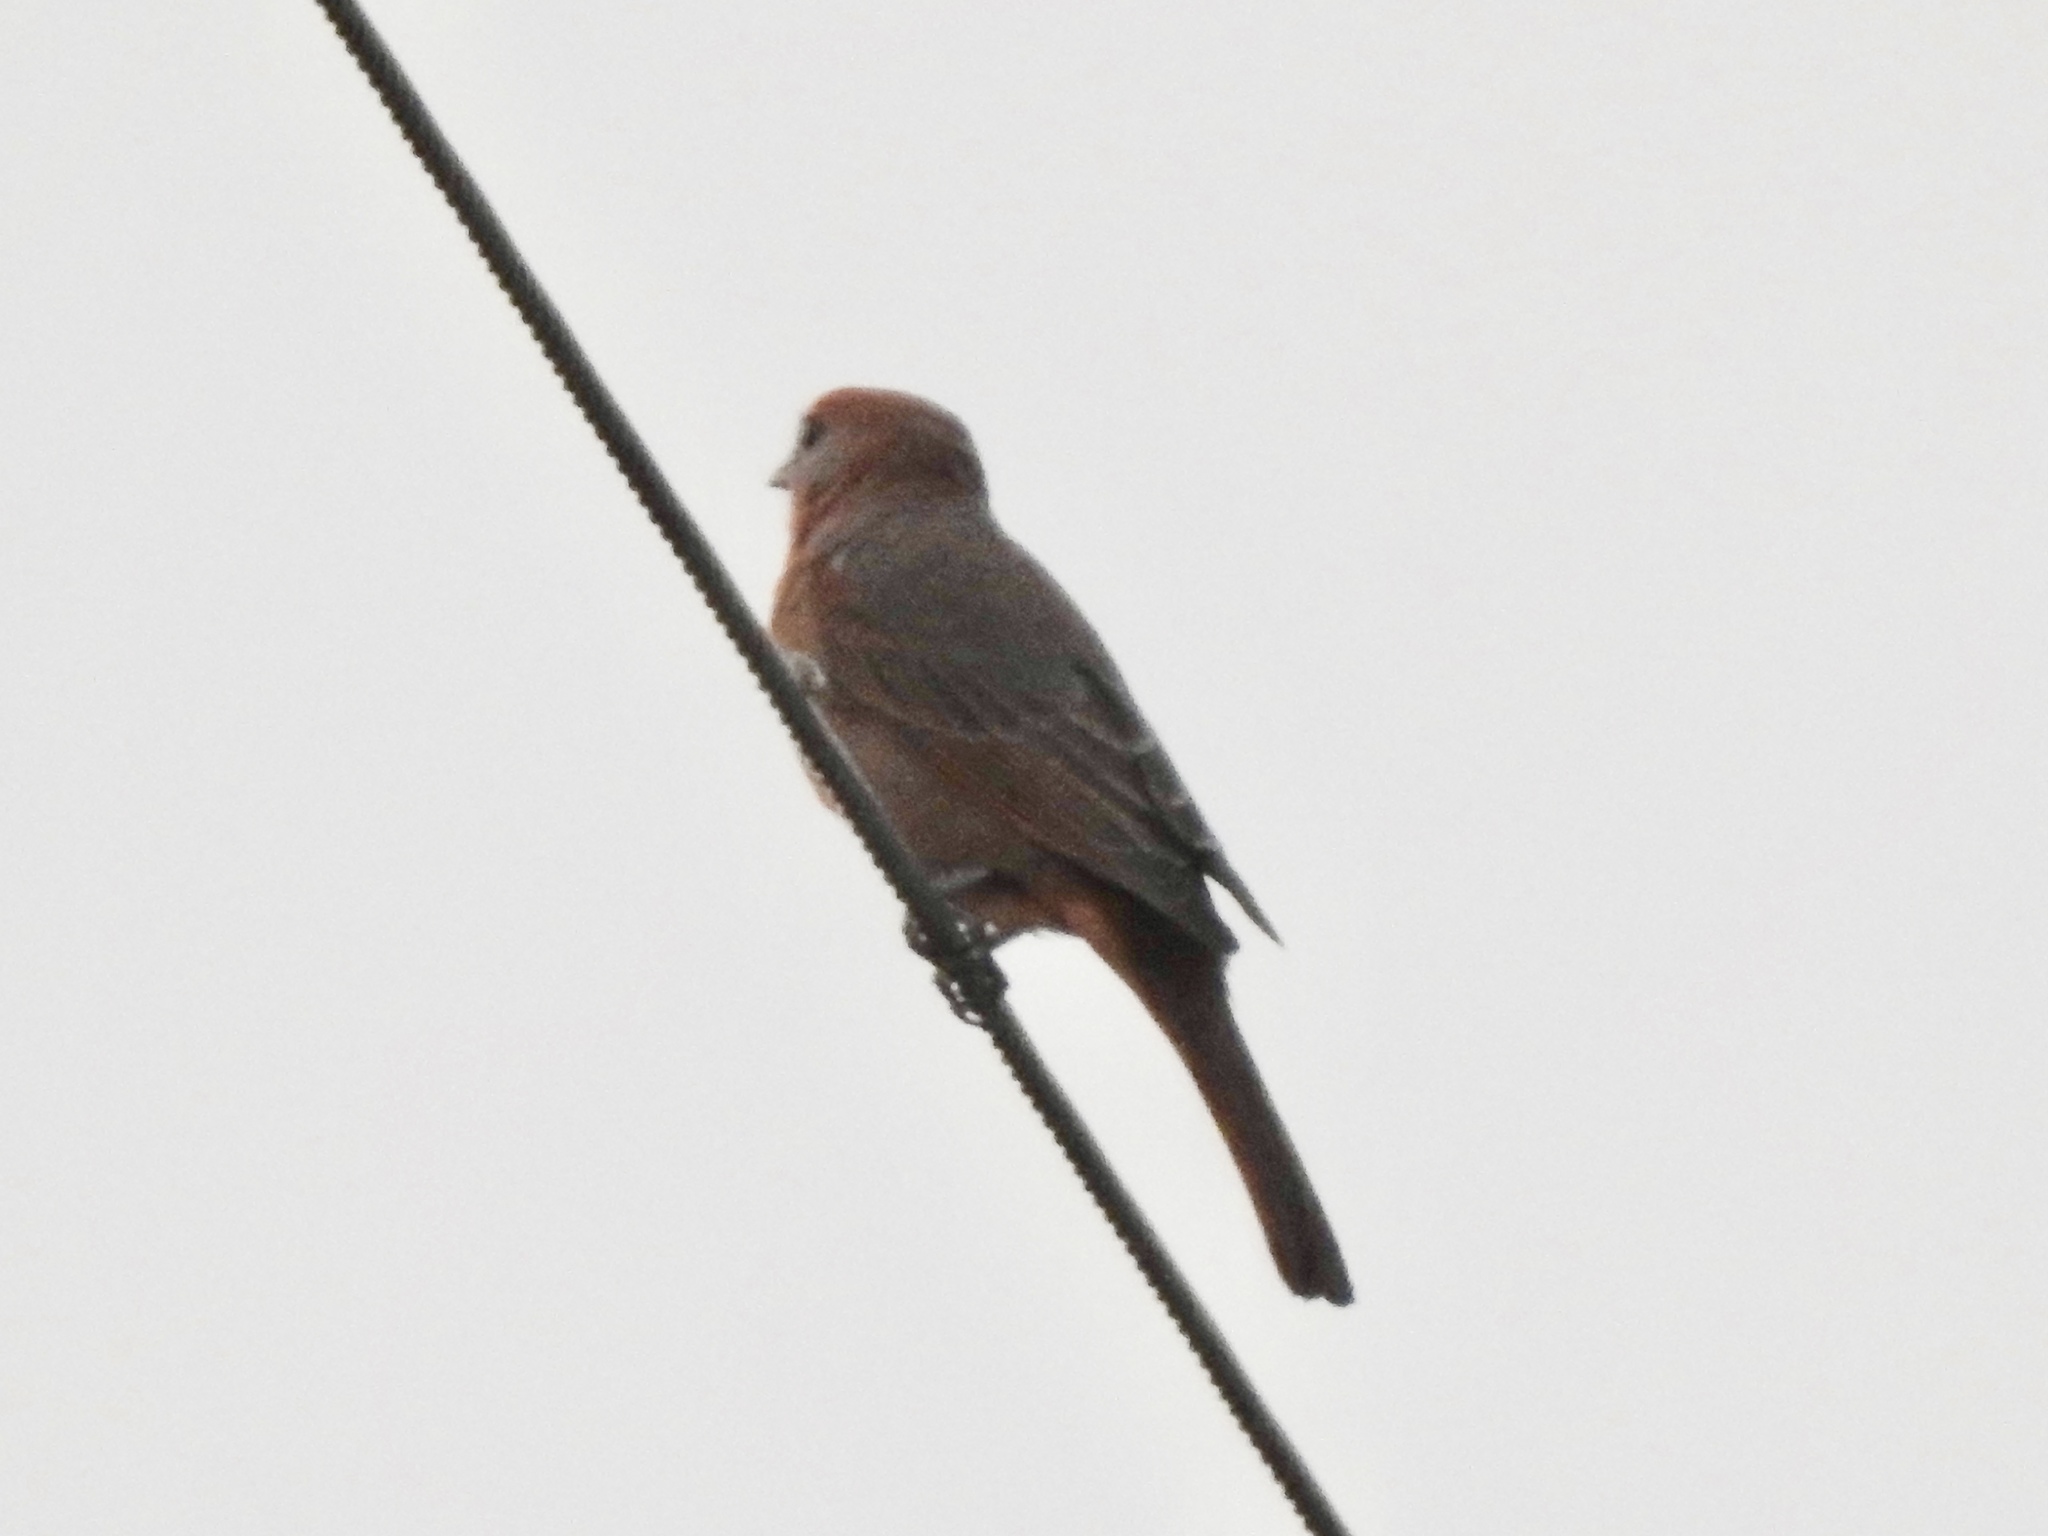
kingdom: Animalia
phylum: Chordata
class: Aves
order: Passeriformes
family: Cardinalidae
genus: Piranga
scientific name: Piranga flava
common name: Red tanager
